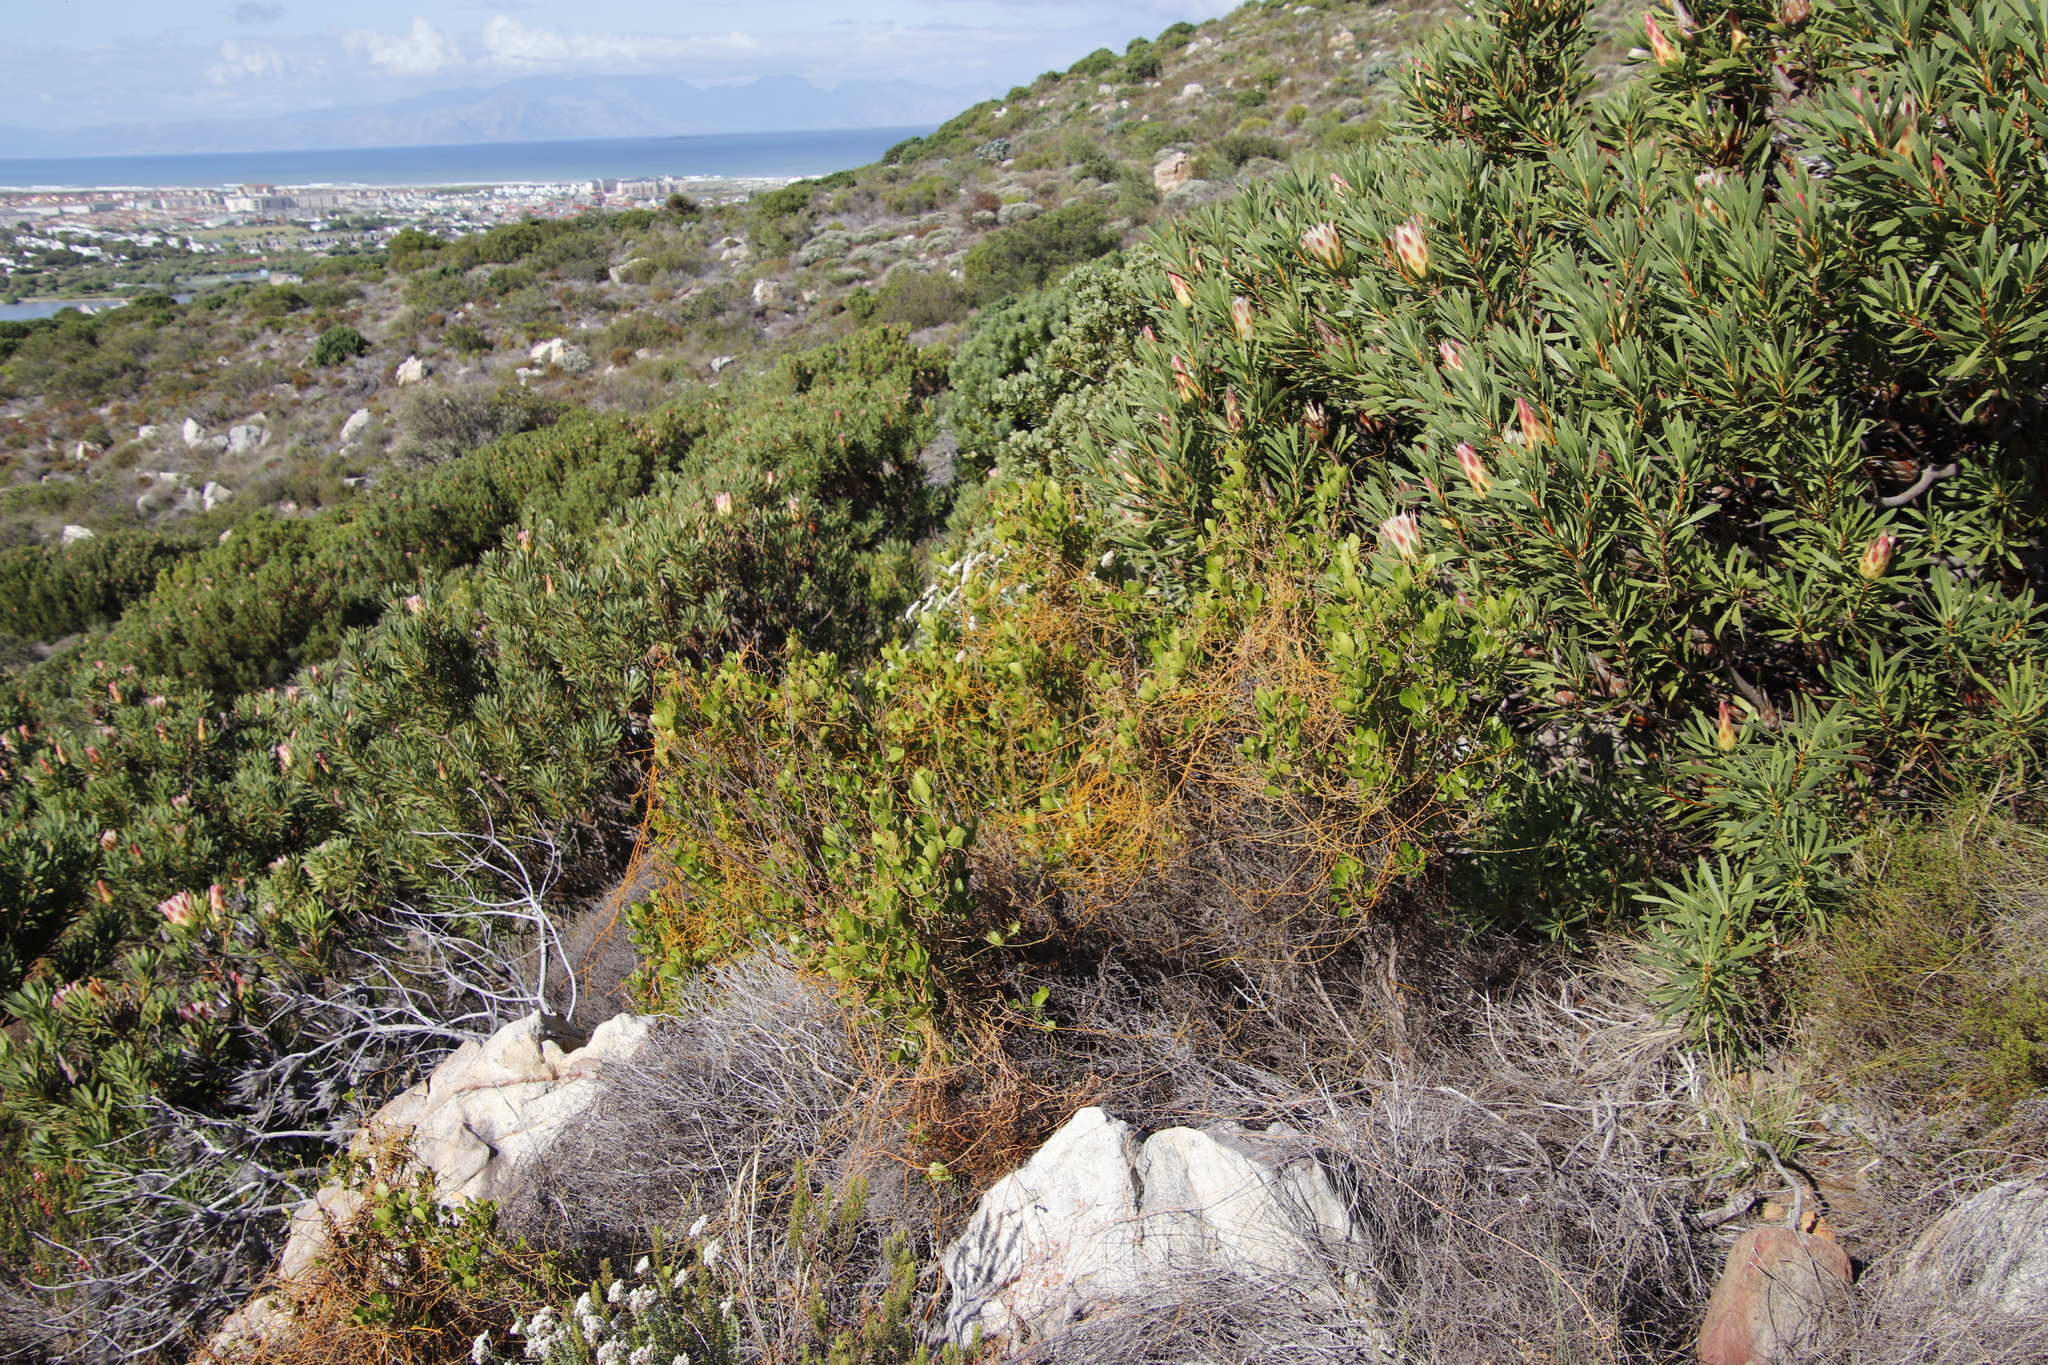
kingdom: Plantae
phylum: Tracheophyta
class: Magnoliopsida
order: Laurales
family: Lauraceae
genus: Cassytha
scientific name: Cassytha ciliolata
